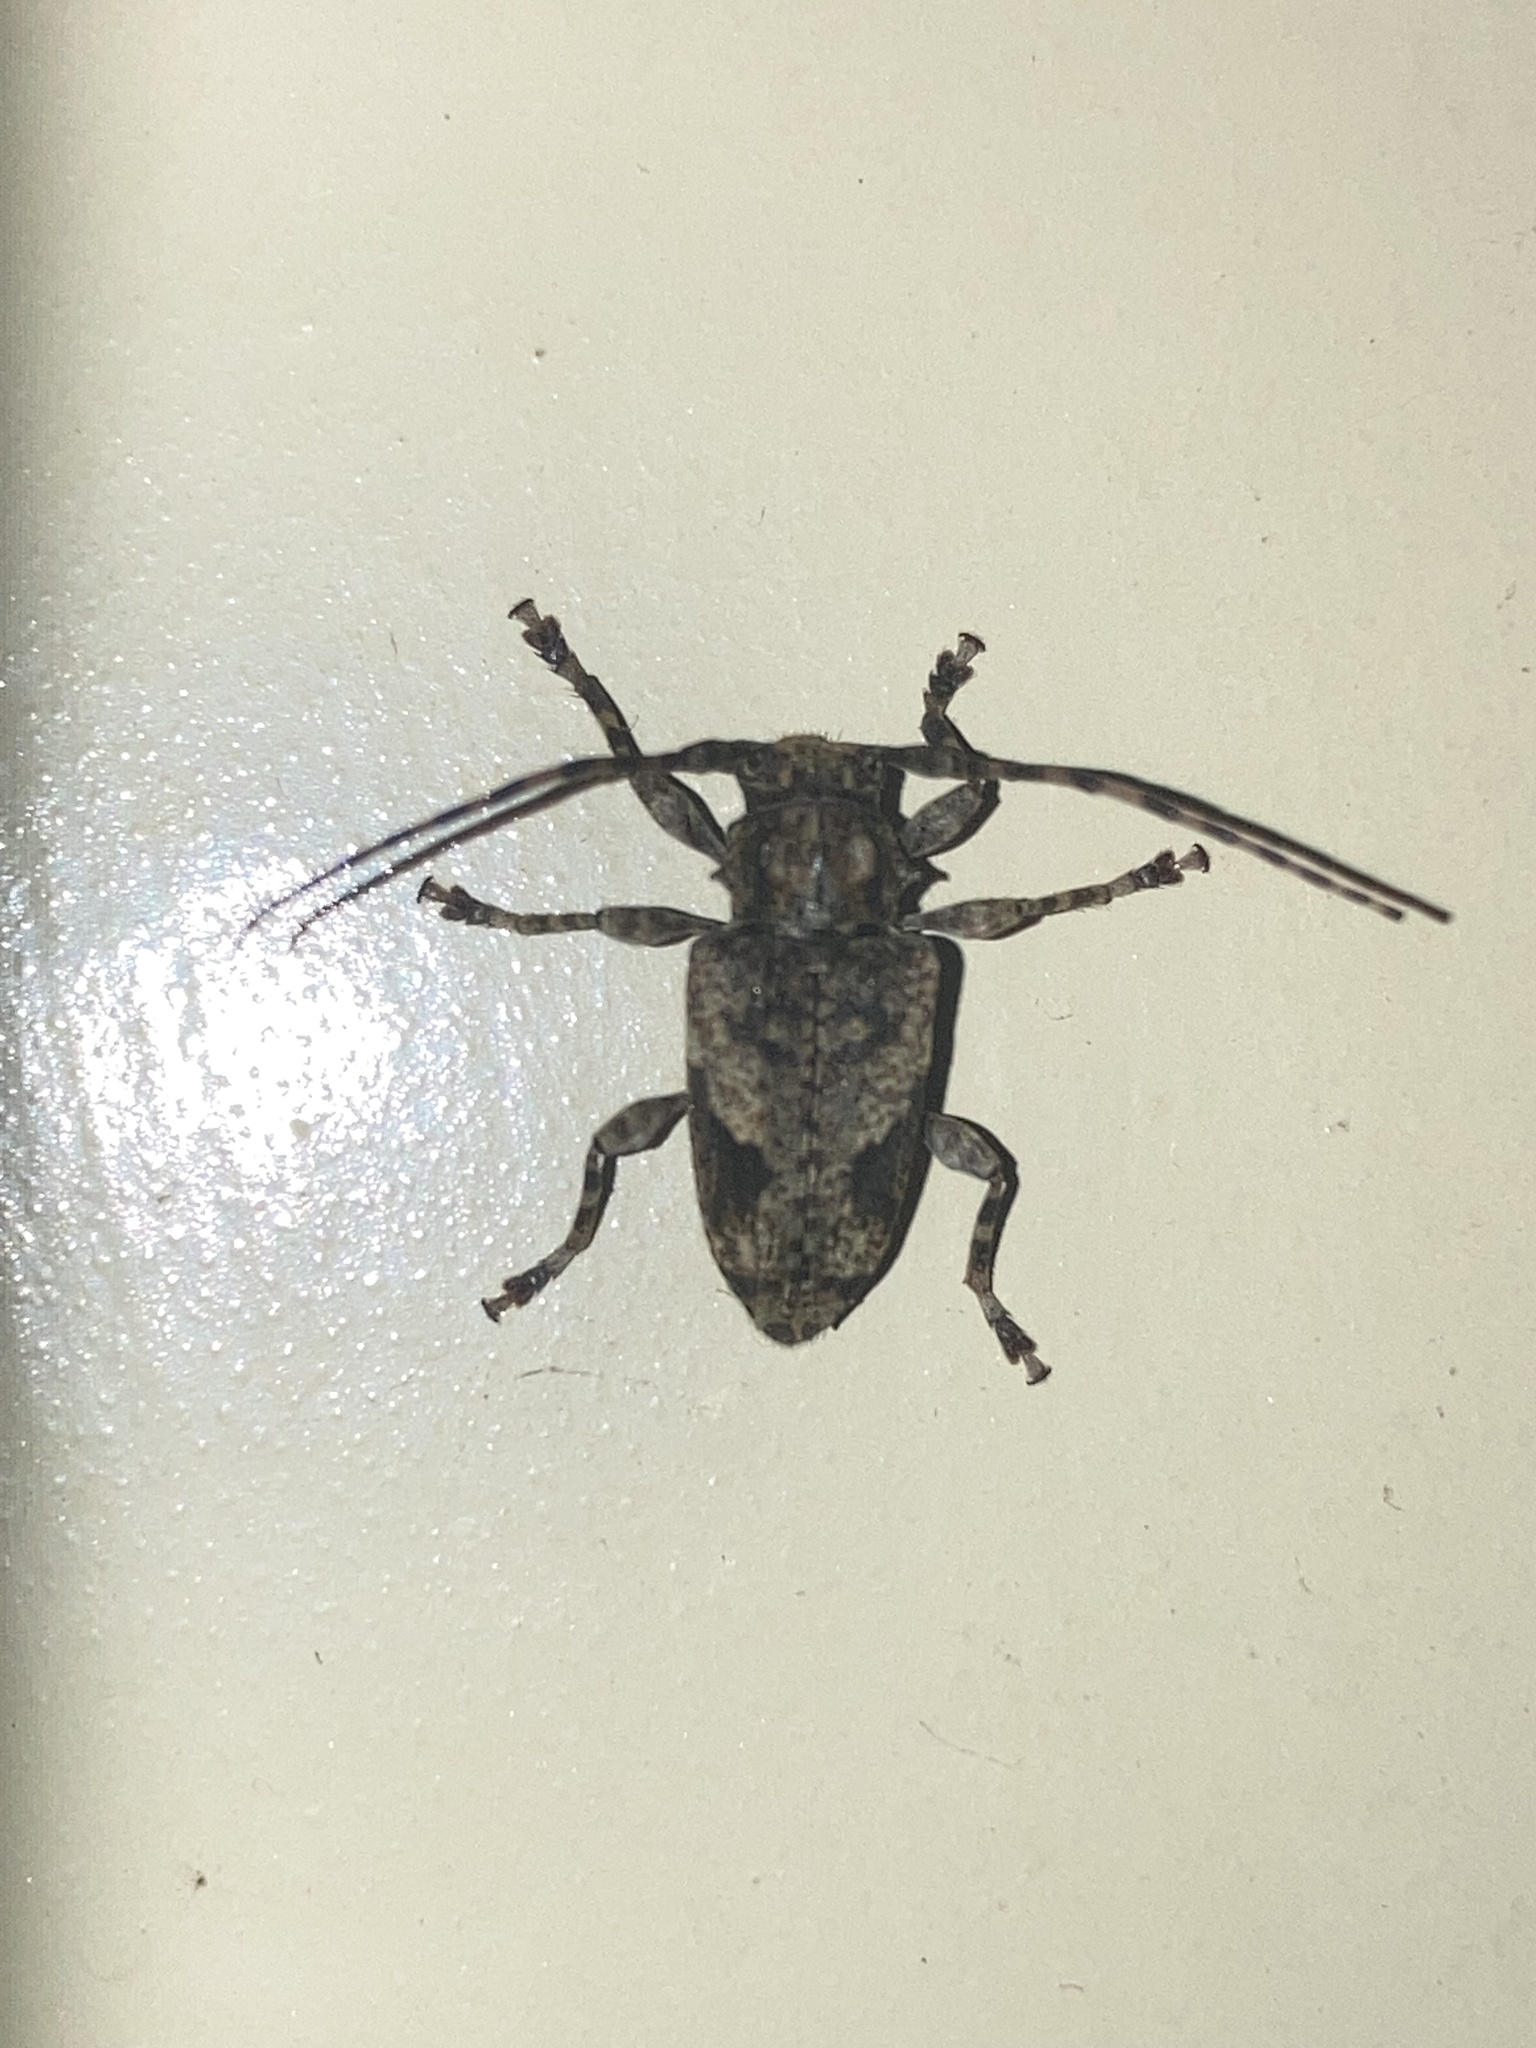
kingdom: Animalia
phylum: Arthropoda
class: Insecta
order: Coleoptera
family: Cerambycidae
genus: Psapharochrus
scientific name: Psapharochrus jaspideus
